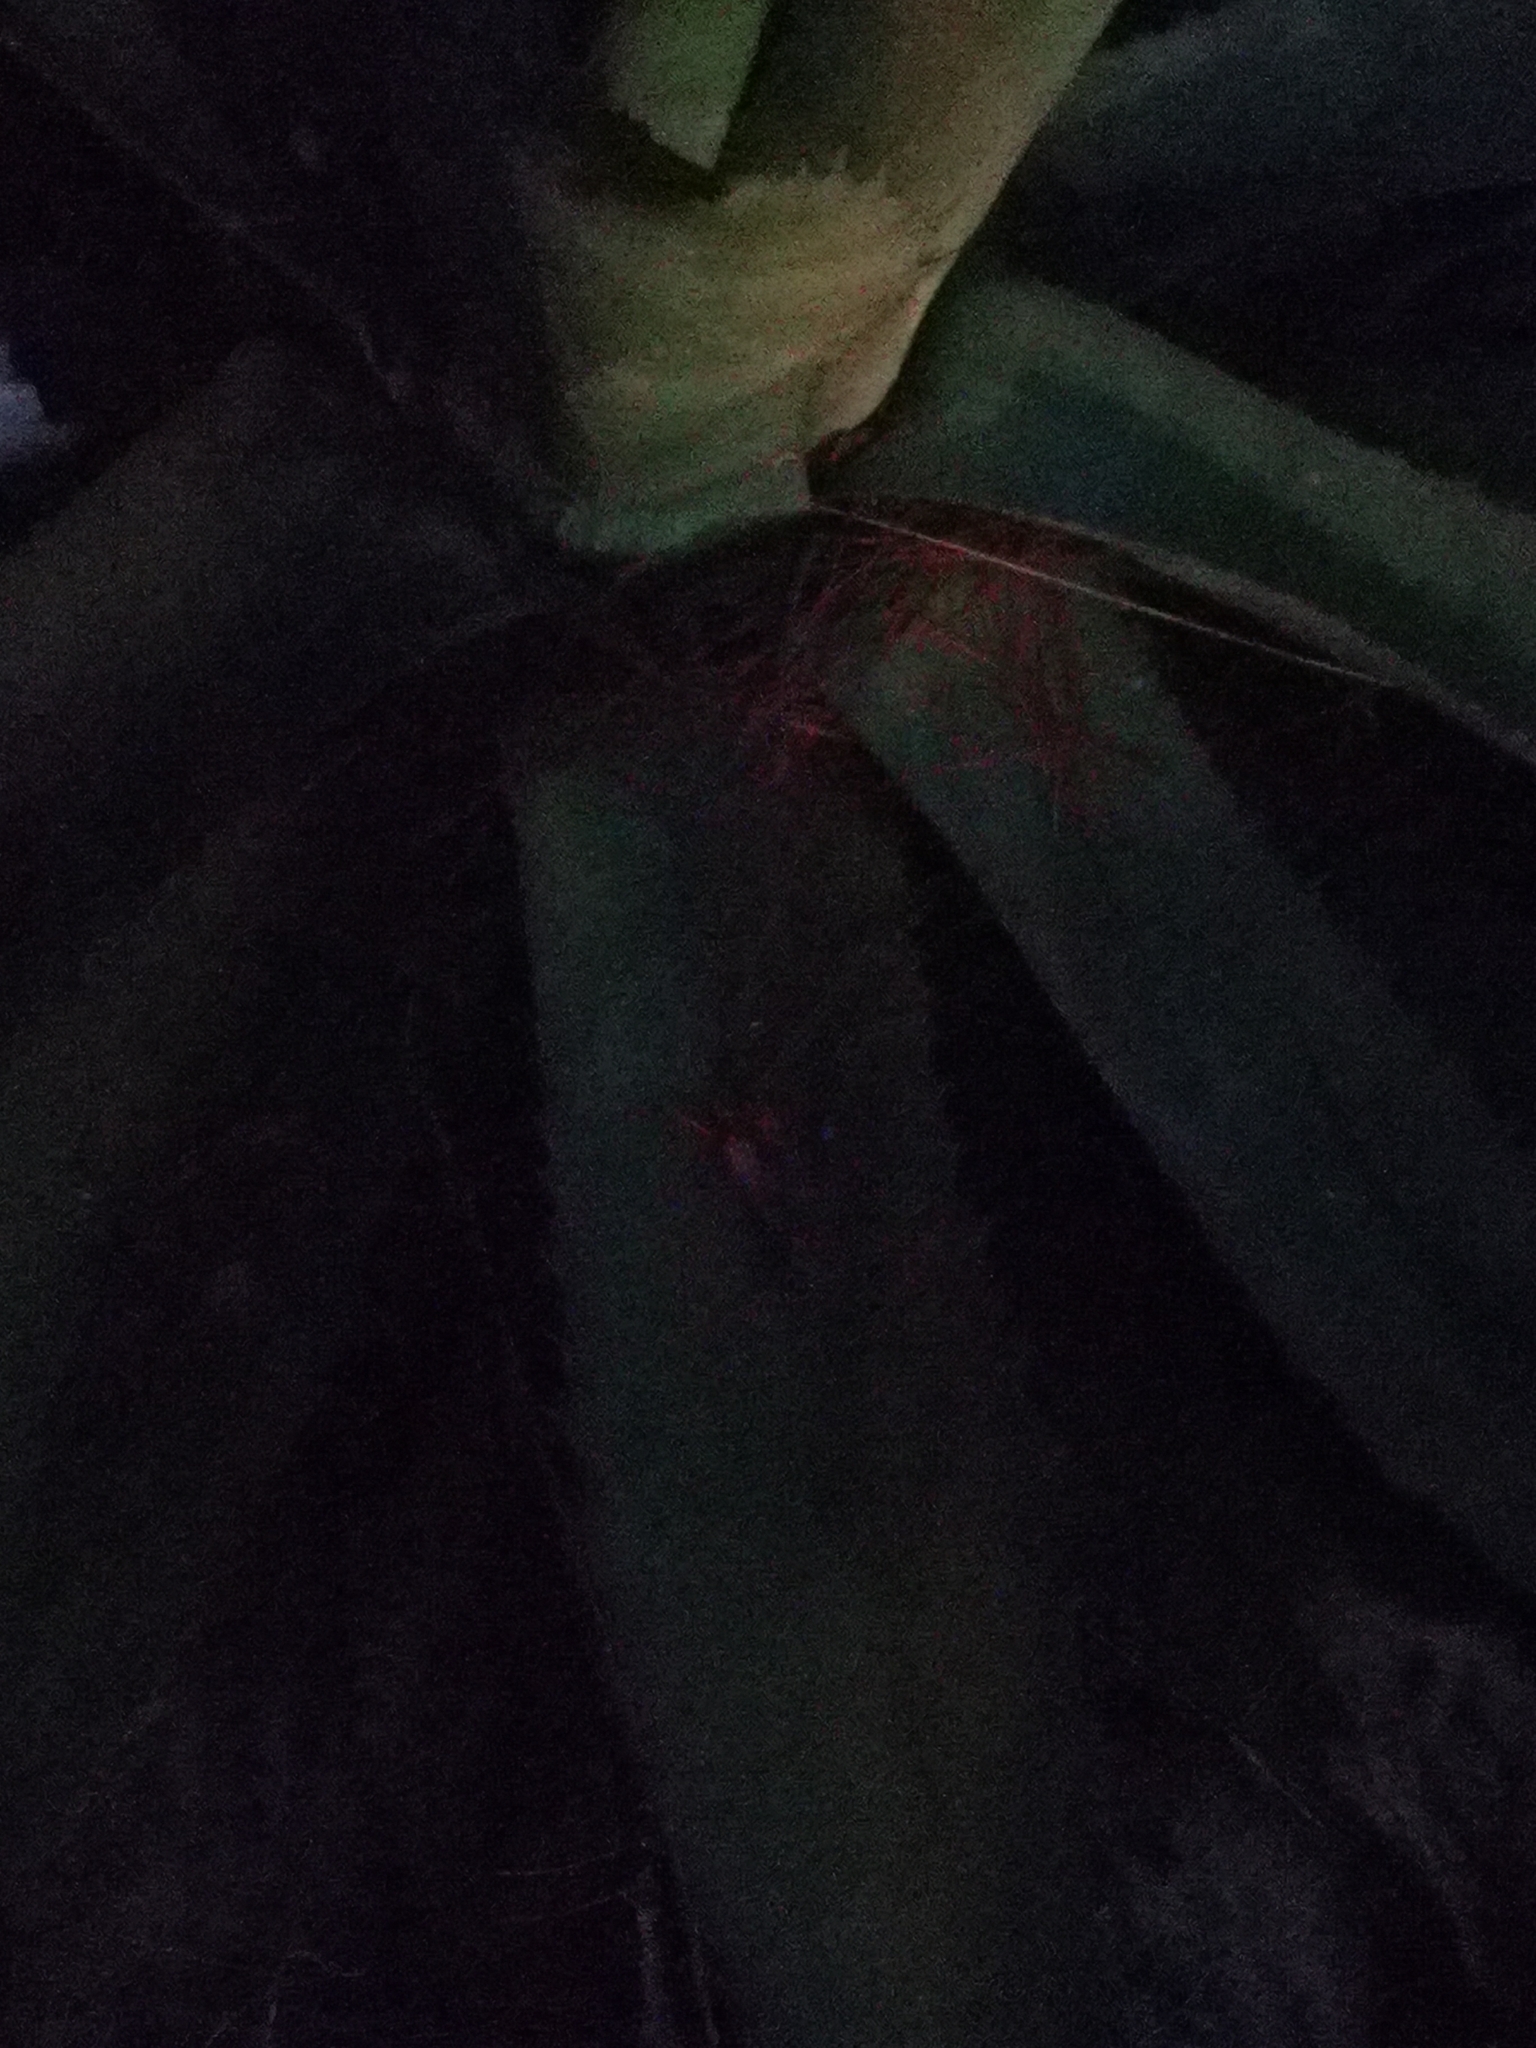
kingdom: Plantae
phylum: Tracheophyta
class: Liliopsida
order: Asparagales
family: Asparagaceae
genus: Agave
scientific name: Agave wocomahi
